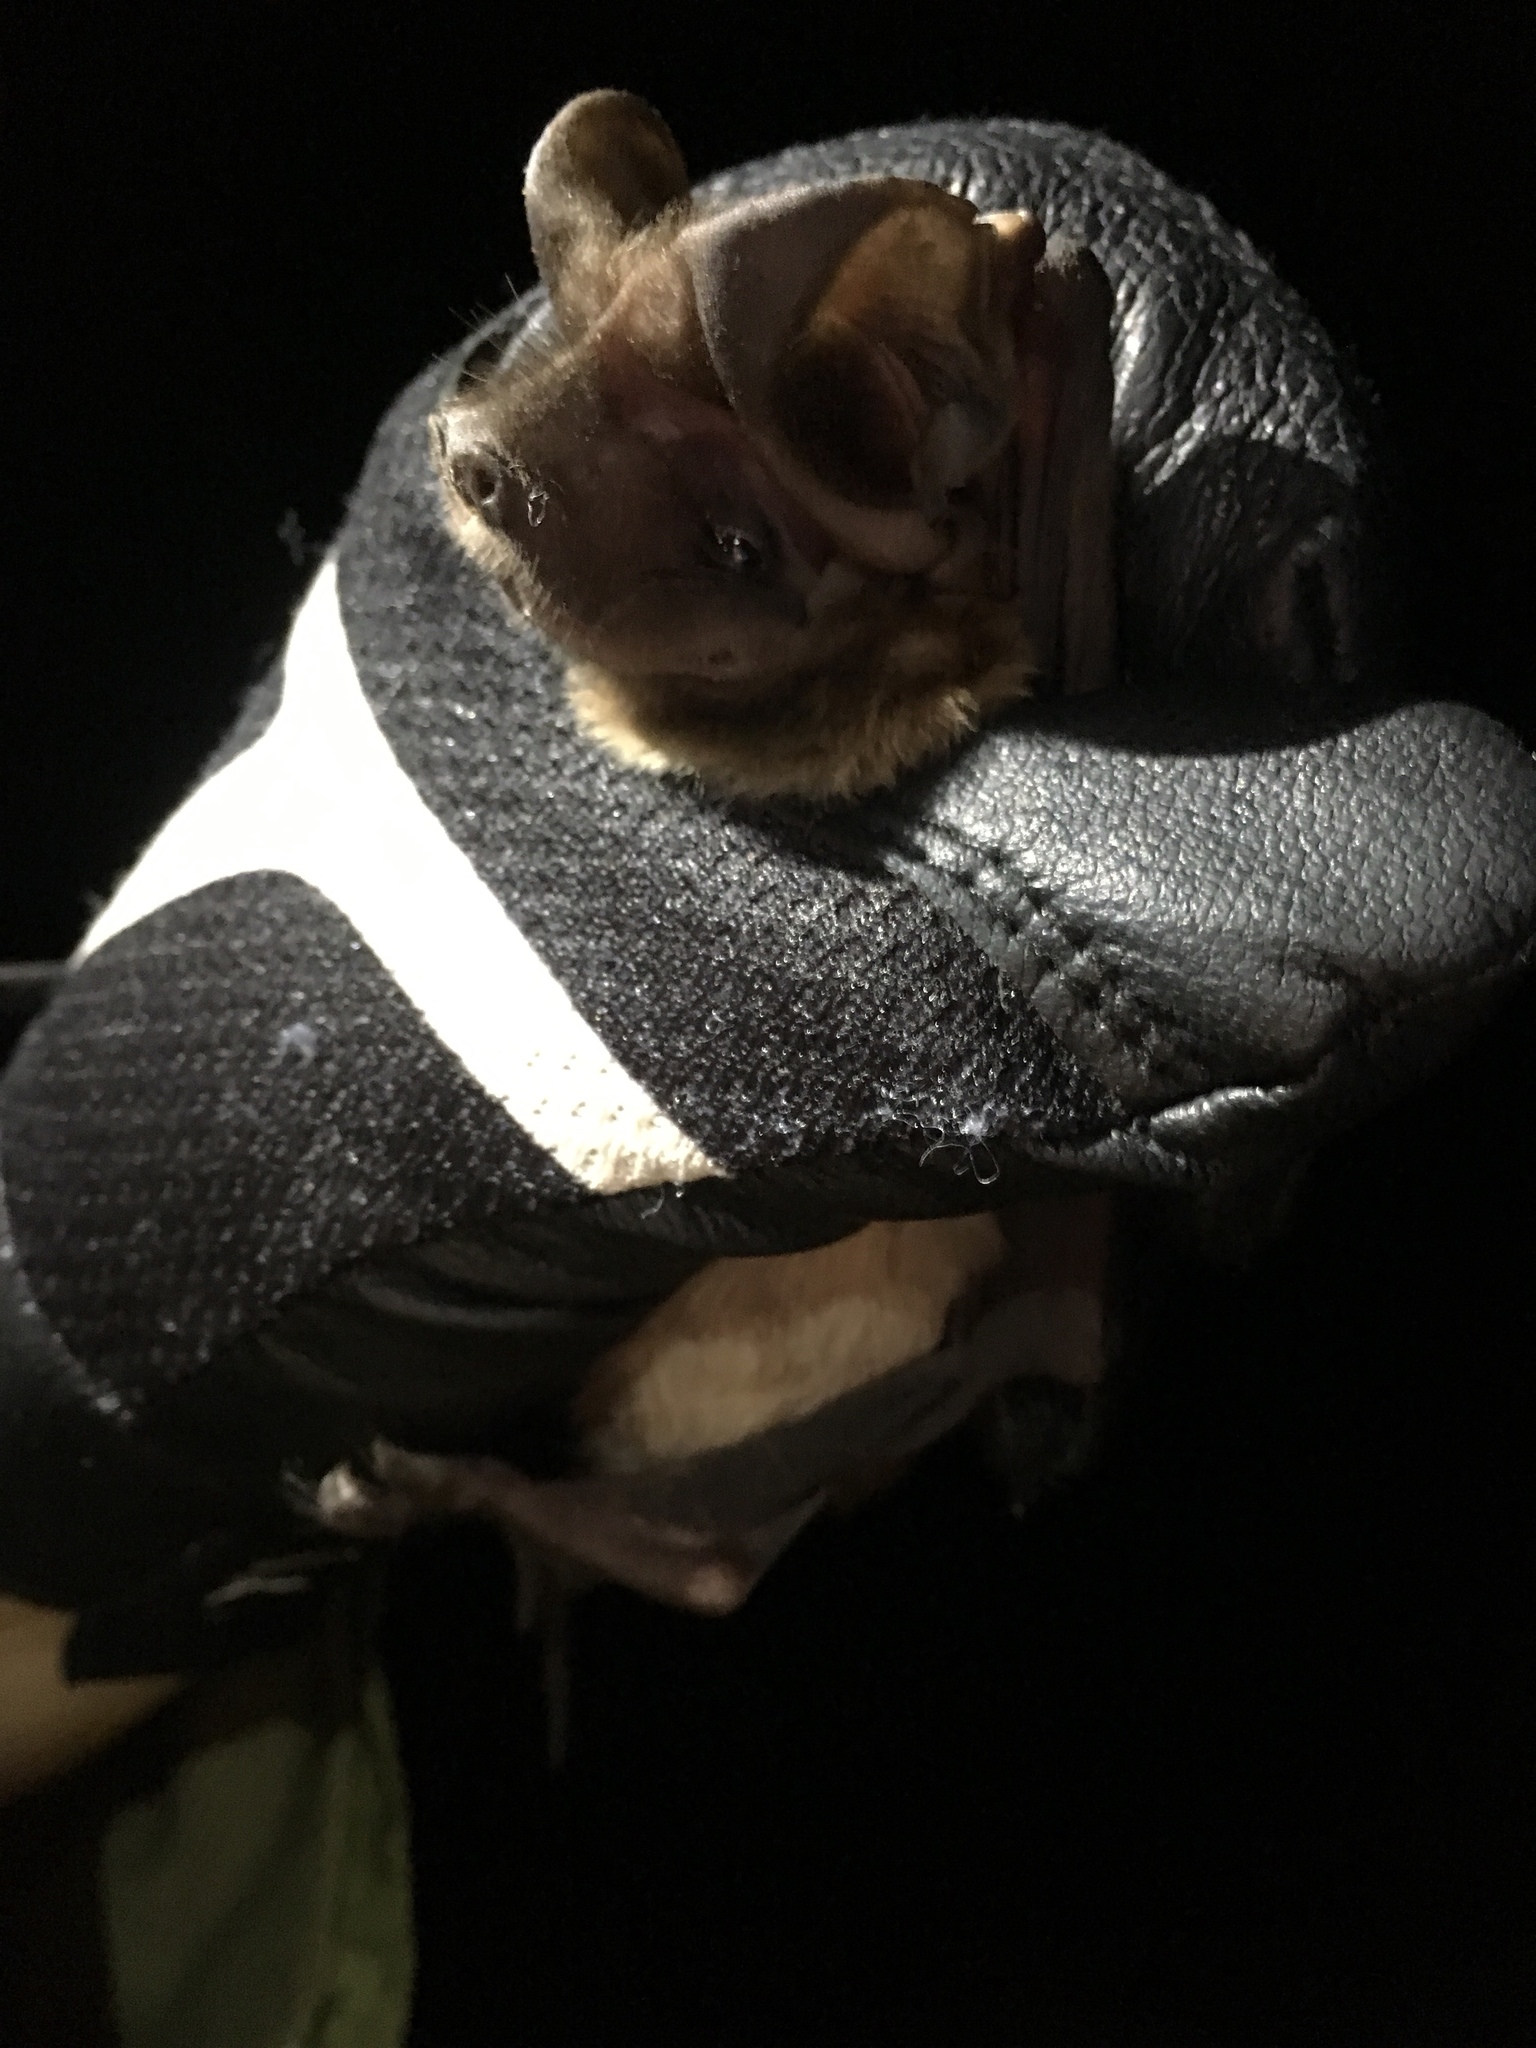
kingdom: Animalia
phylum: Chordata
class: Mammalia
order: Chiroptera
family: Molossidae
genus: Eumops
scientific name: Eumops floridanus
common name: Florida bonneted bat
